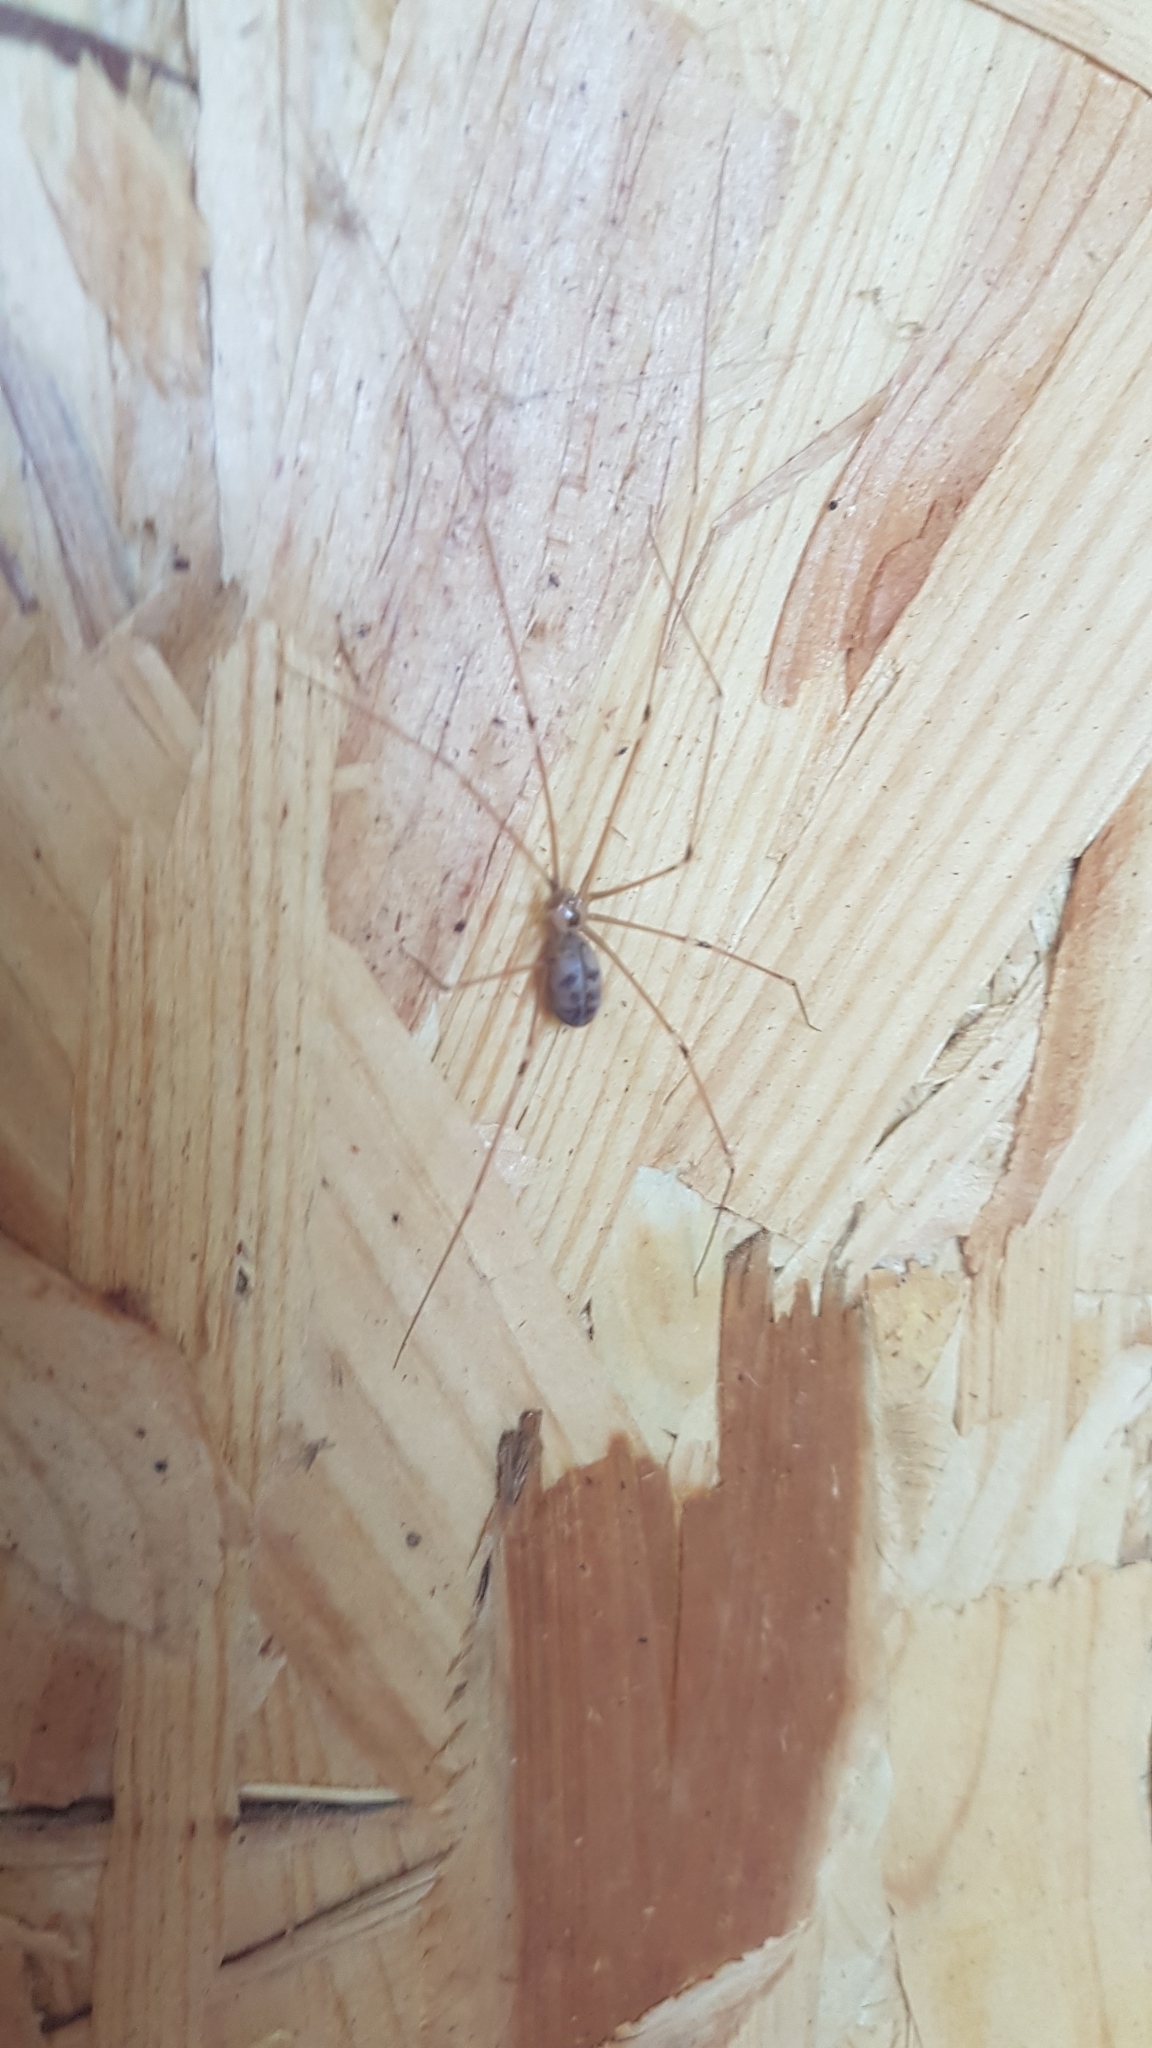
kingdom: Animalia
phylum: Arthropoda
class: Arachnida
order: Araneae
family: Pholcidae
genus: Pholcus
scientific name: Pholcus phalangioides
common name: Longbodied cellar spider
